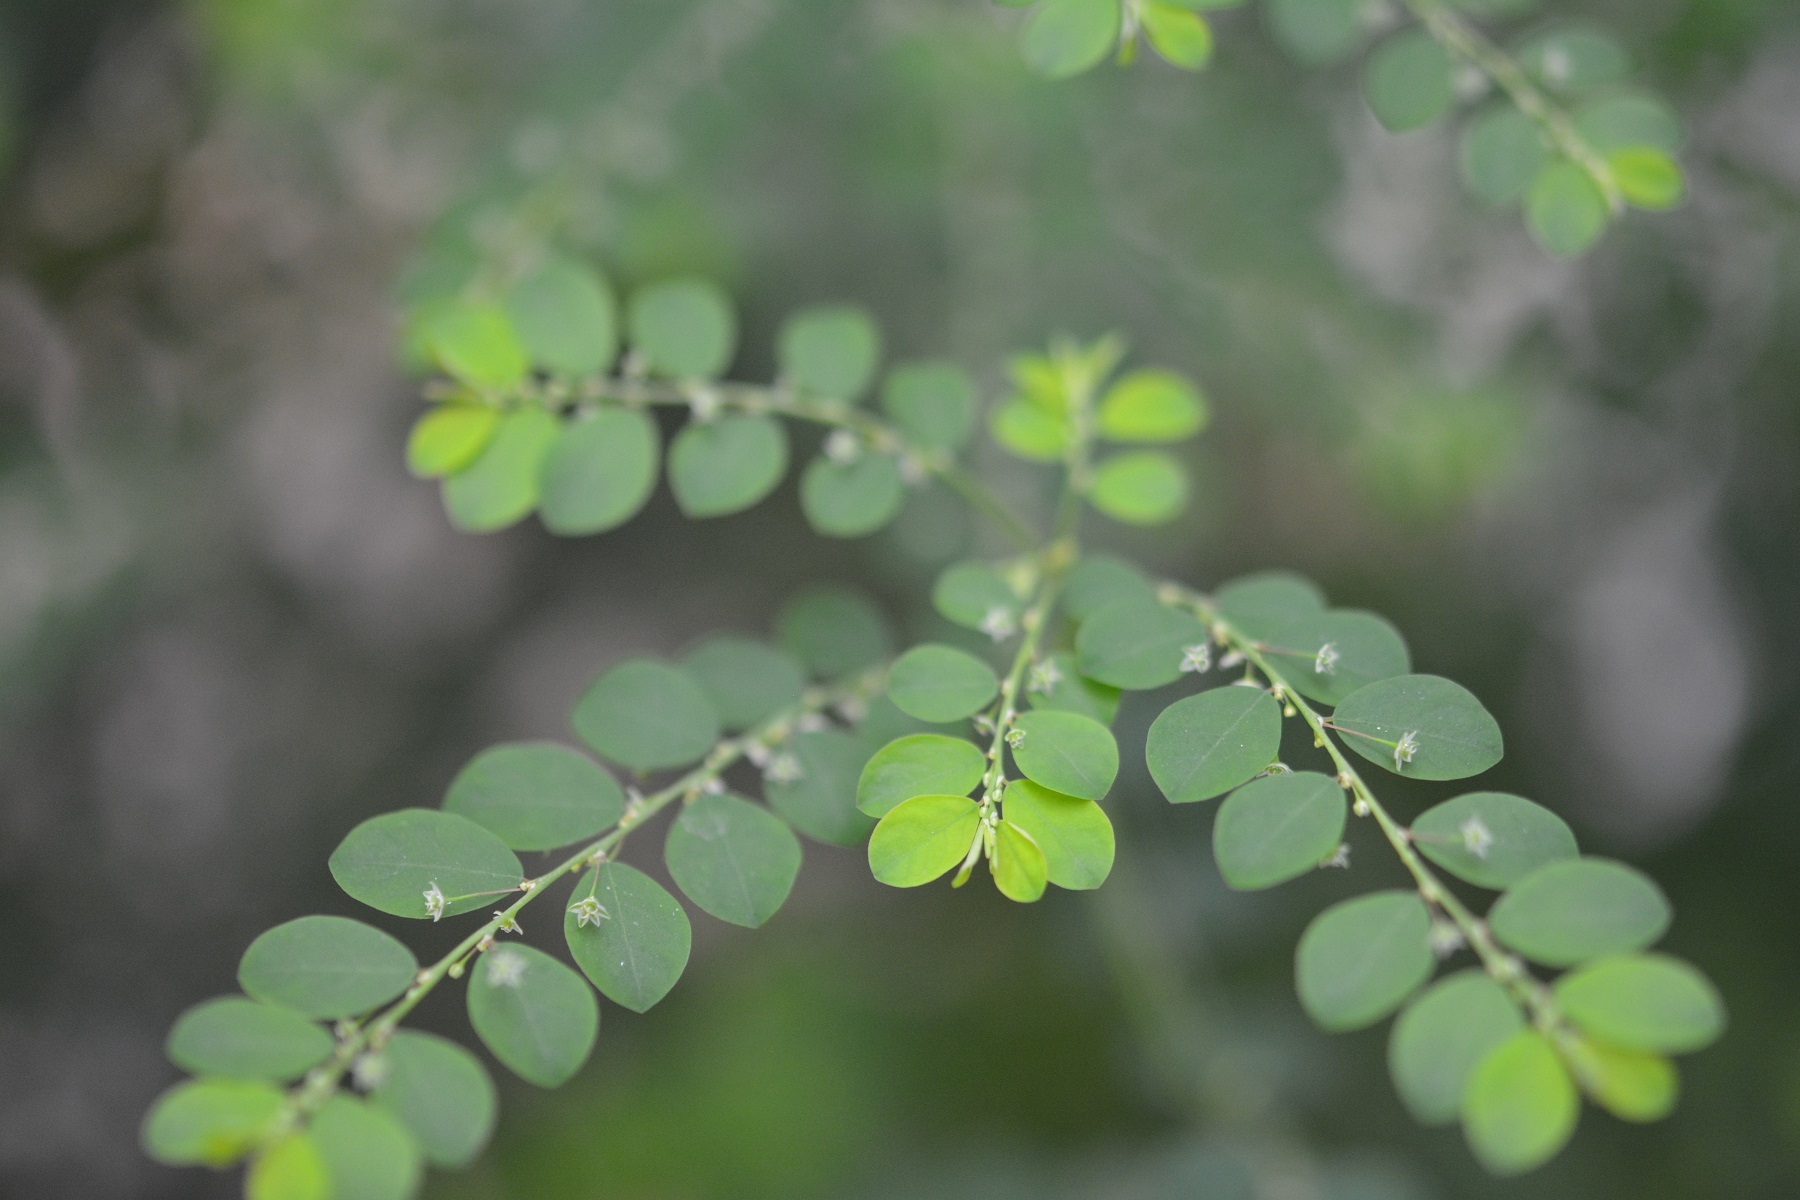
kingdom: Plantae
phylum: Tracheophyta
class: Magnoliopsida
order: Malpighiales
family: Phyllanthaceae
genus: Phyllanthus
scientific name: Phyllanthus tenellus
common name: Mascarene island leaf-flower
